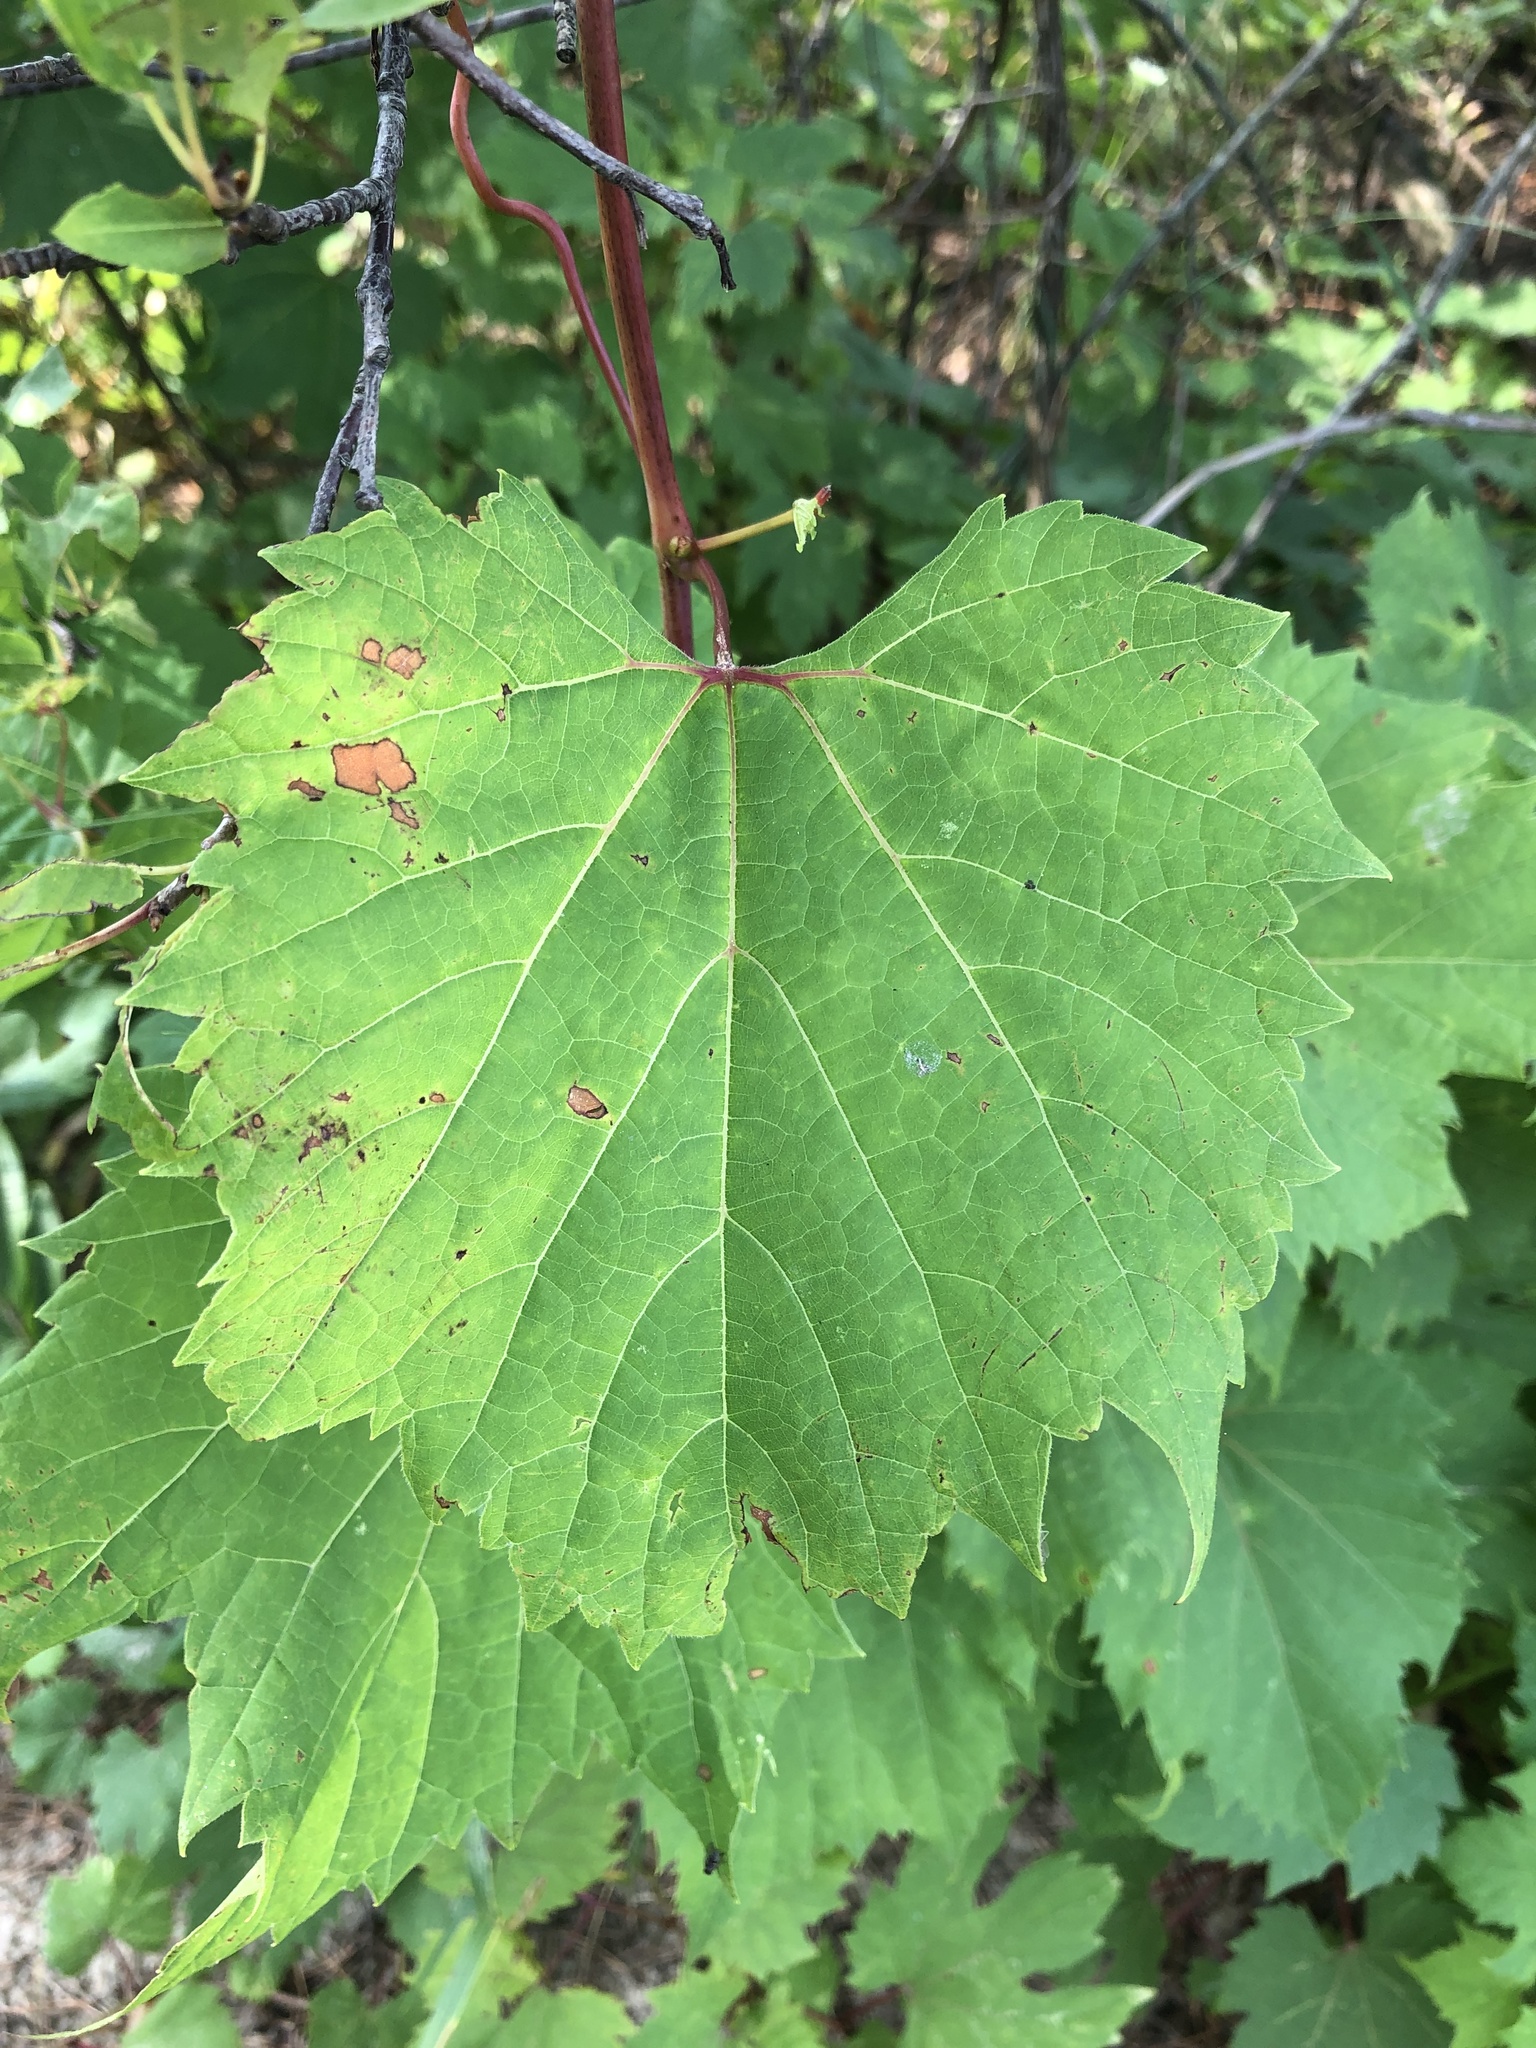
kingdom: Plantae
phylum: Tracheophyta
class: Magnoliopsida
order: Vitales
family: Vitaceae
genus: Vitis
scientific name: Vitis riparia
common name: Frost grape
